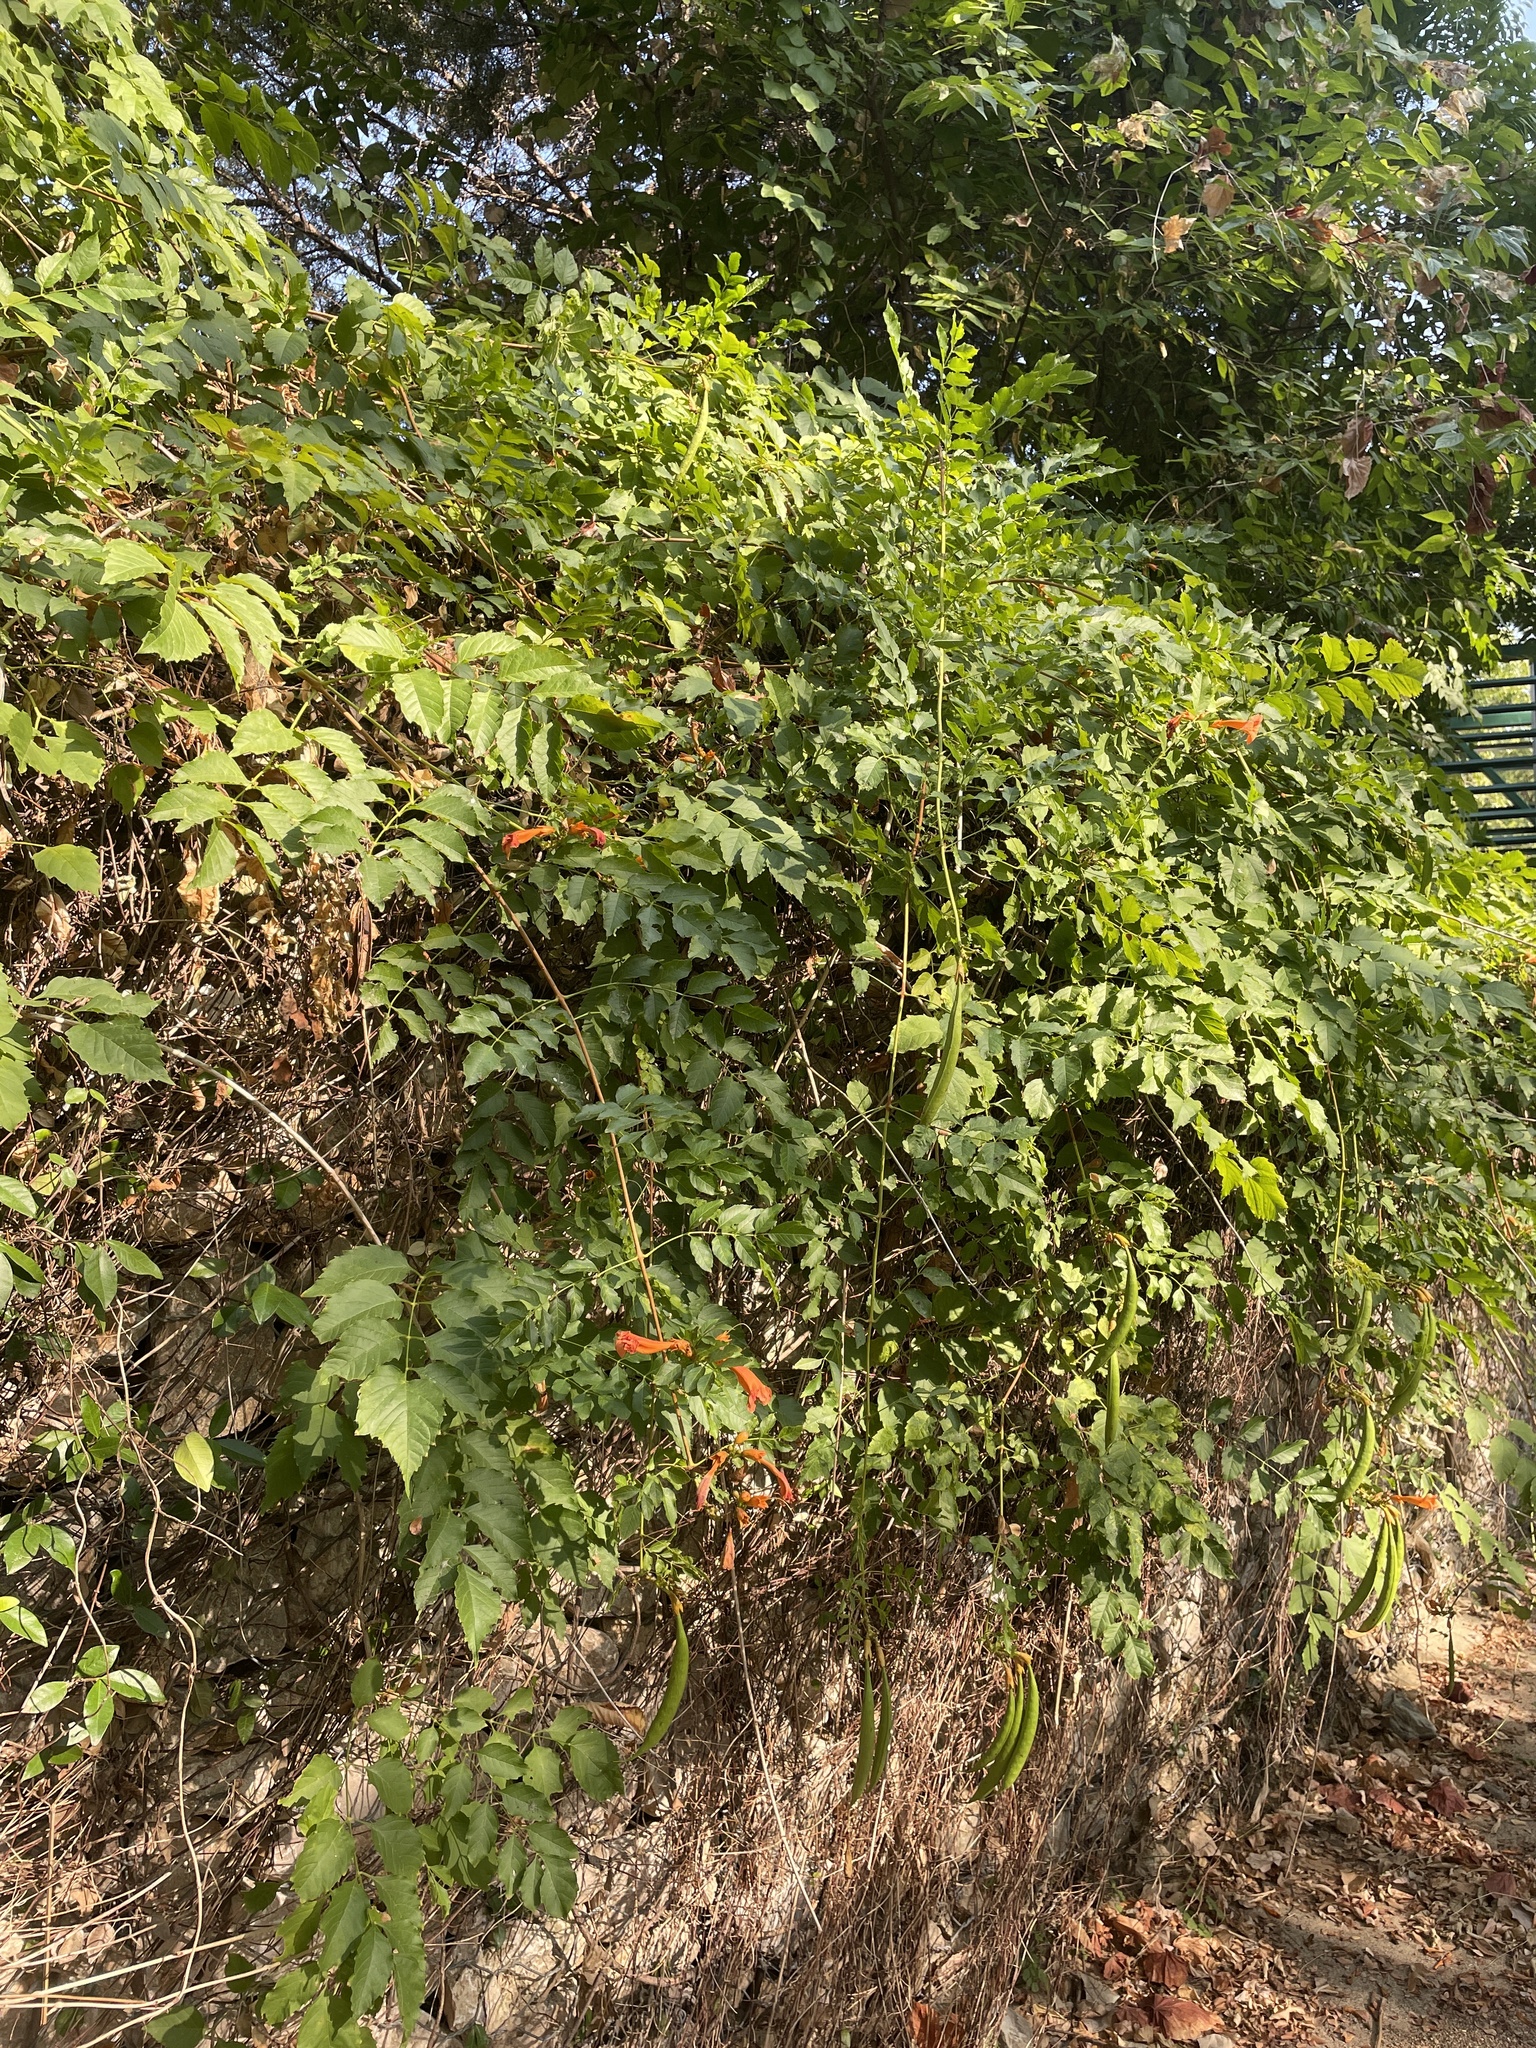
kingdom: Plantae
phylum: Tracheophyta
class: Magnoliopsida
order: Lamiales
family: Bignoniaceae
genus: Campsis
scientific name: Campsis radicans
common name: Trumpet-creeper
